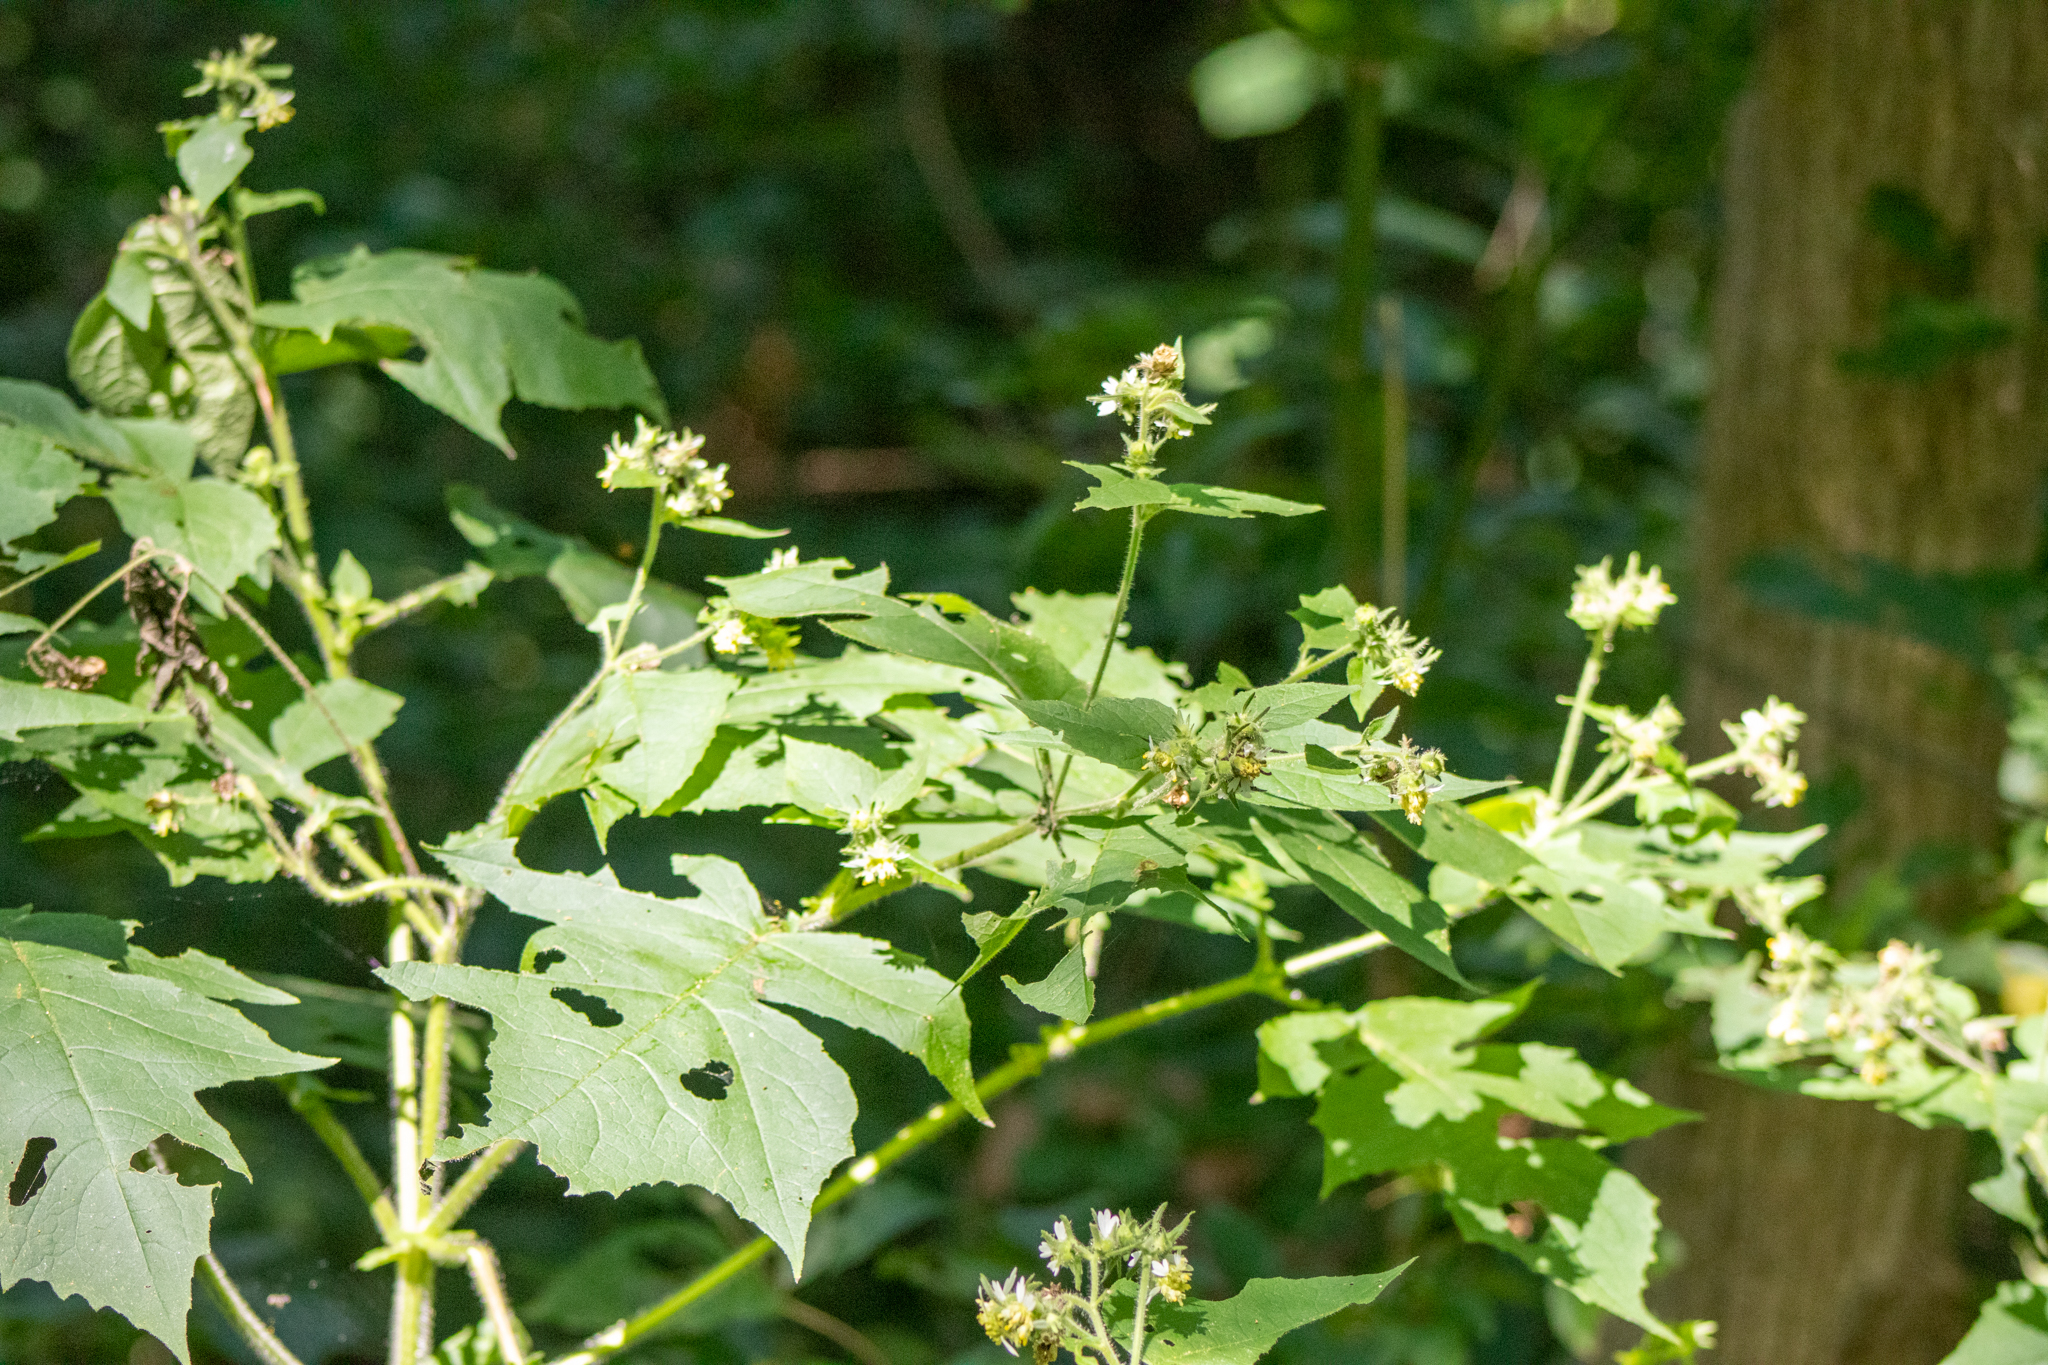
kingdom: Plantae
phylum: Tracheophyta
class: Magnoliopsida
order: Asterales
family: Asteraceae
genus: Polymnia
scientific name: Polymnia canadensis
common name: Pale-flowered leafcup
